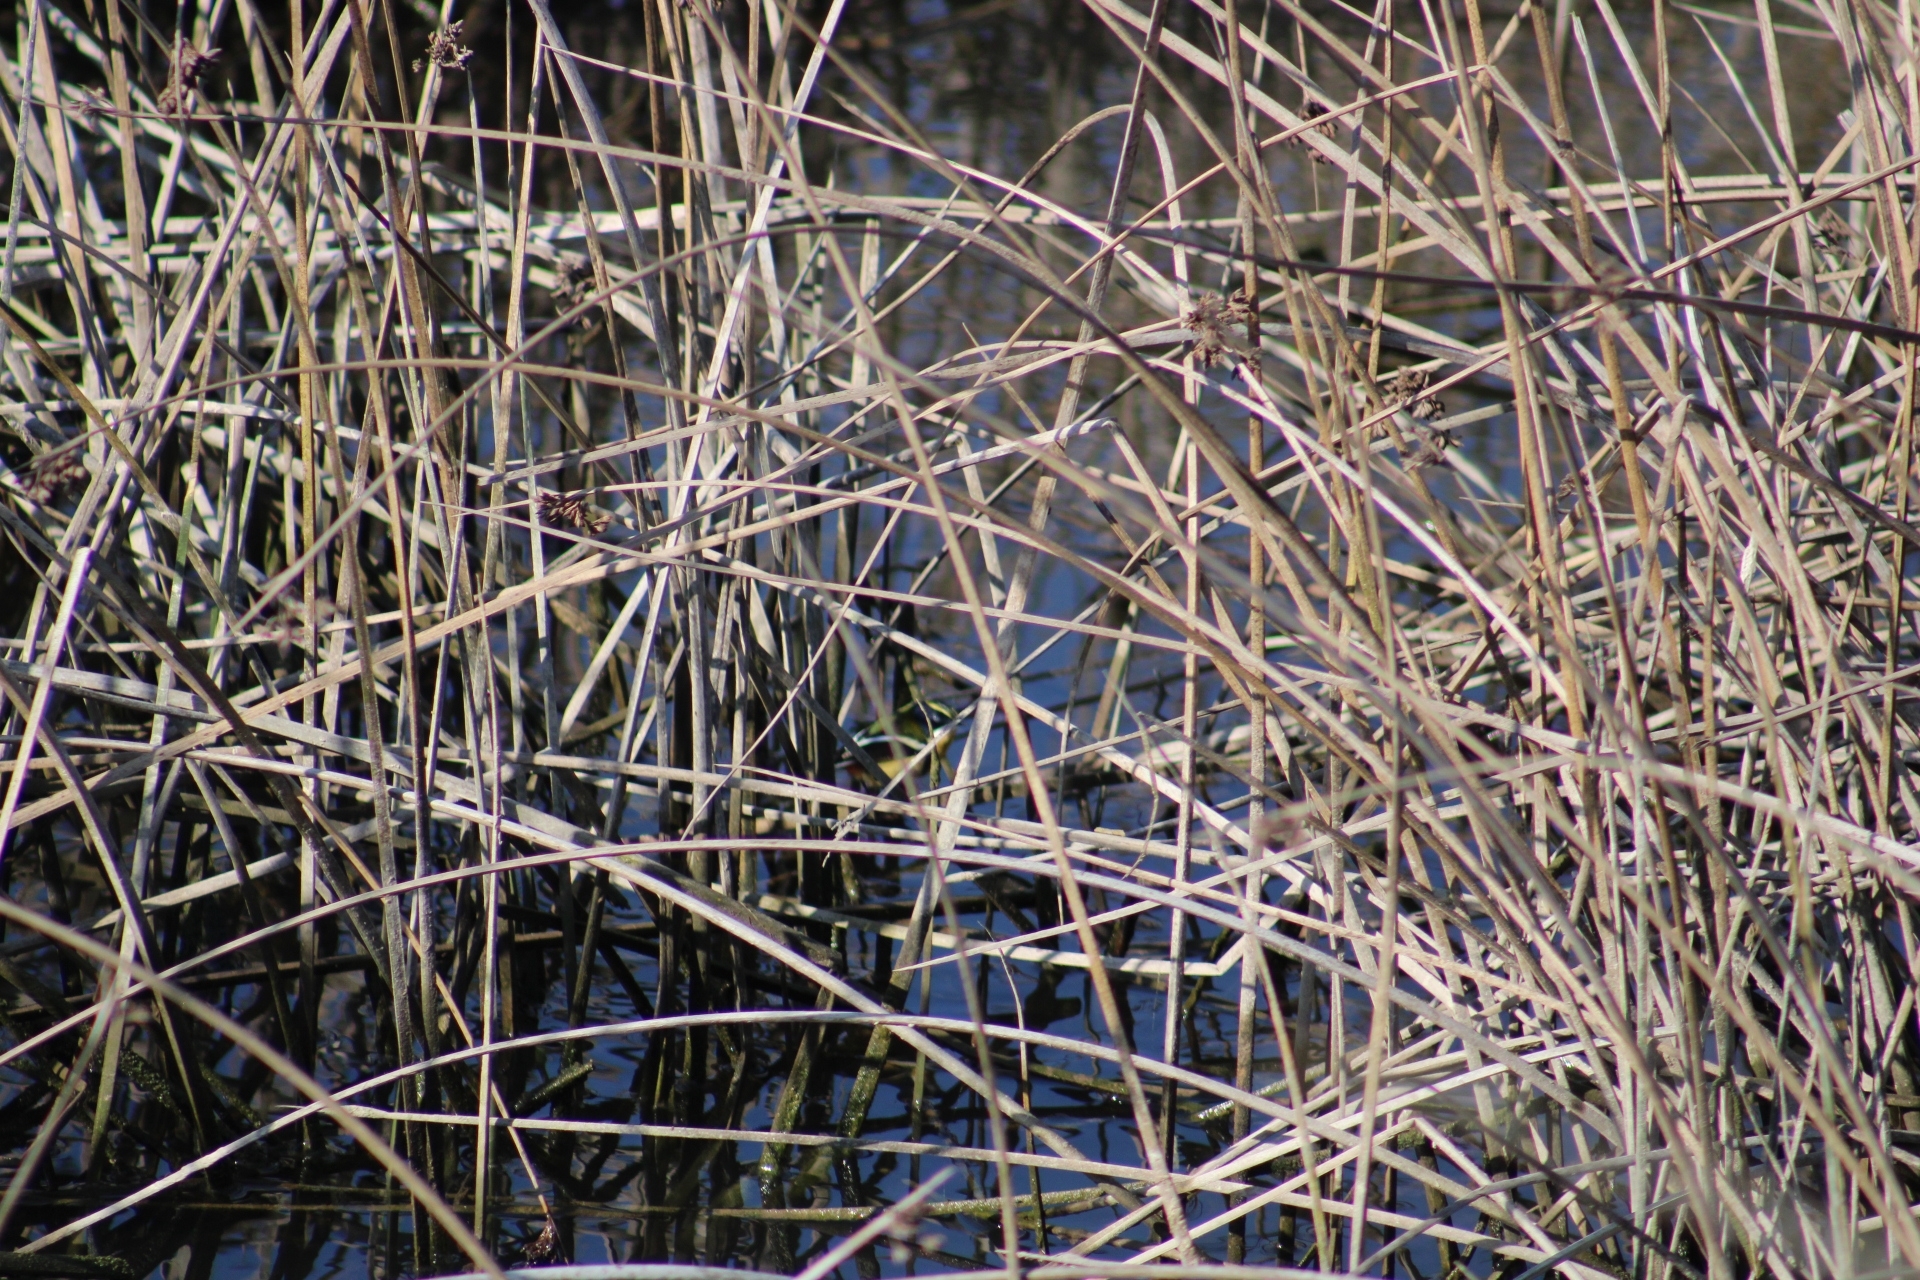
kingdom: Animalia
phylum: Chordata
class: Aves
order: Passeriformes
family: Tyrannidae
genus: Tachuris
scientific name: Tachuris rubrigastra
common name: Many-colored rush tyrant
